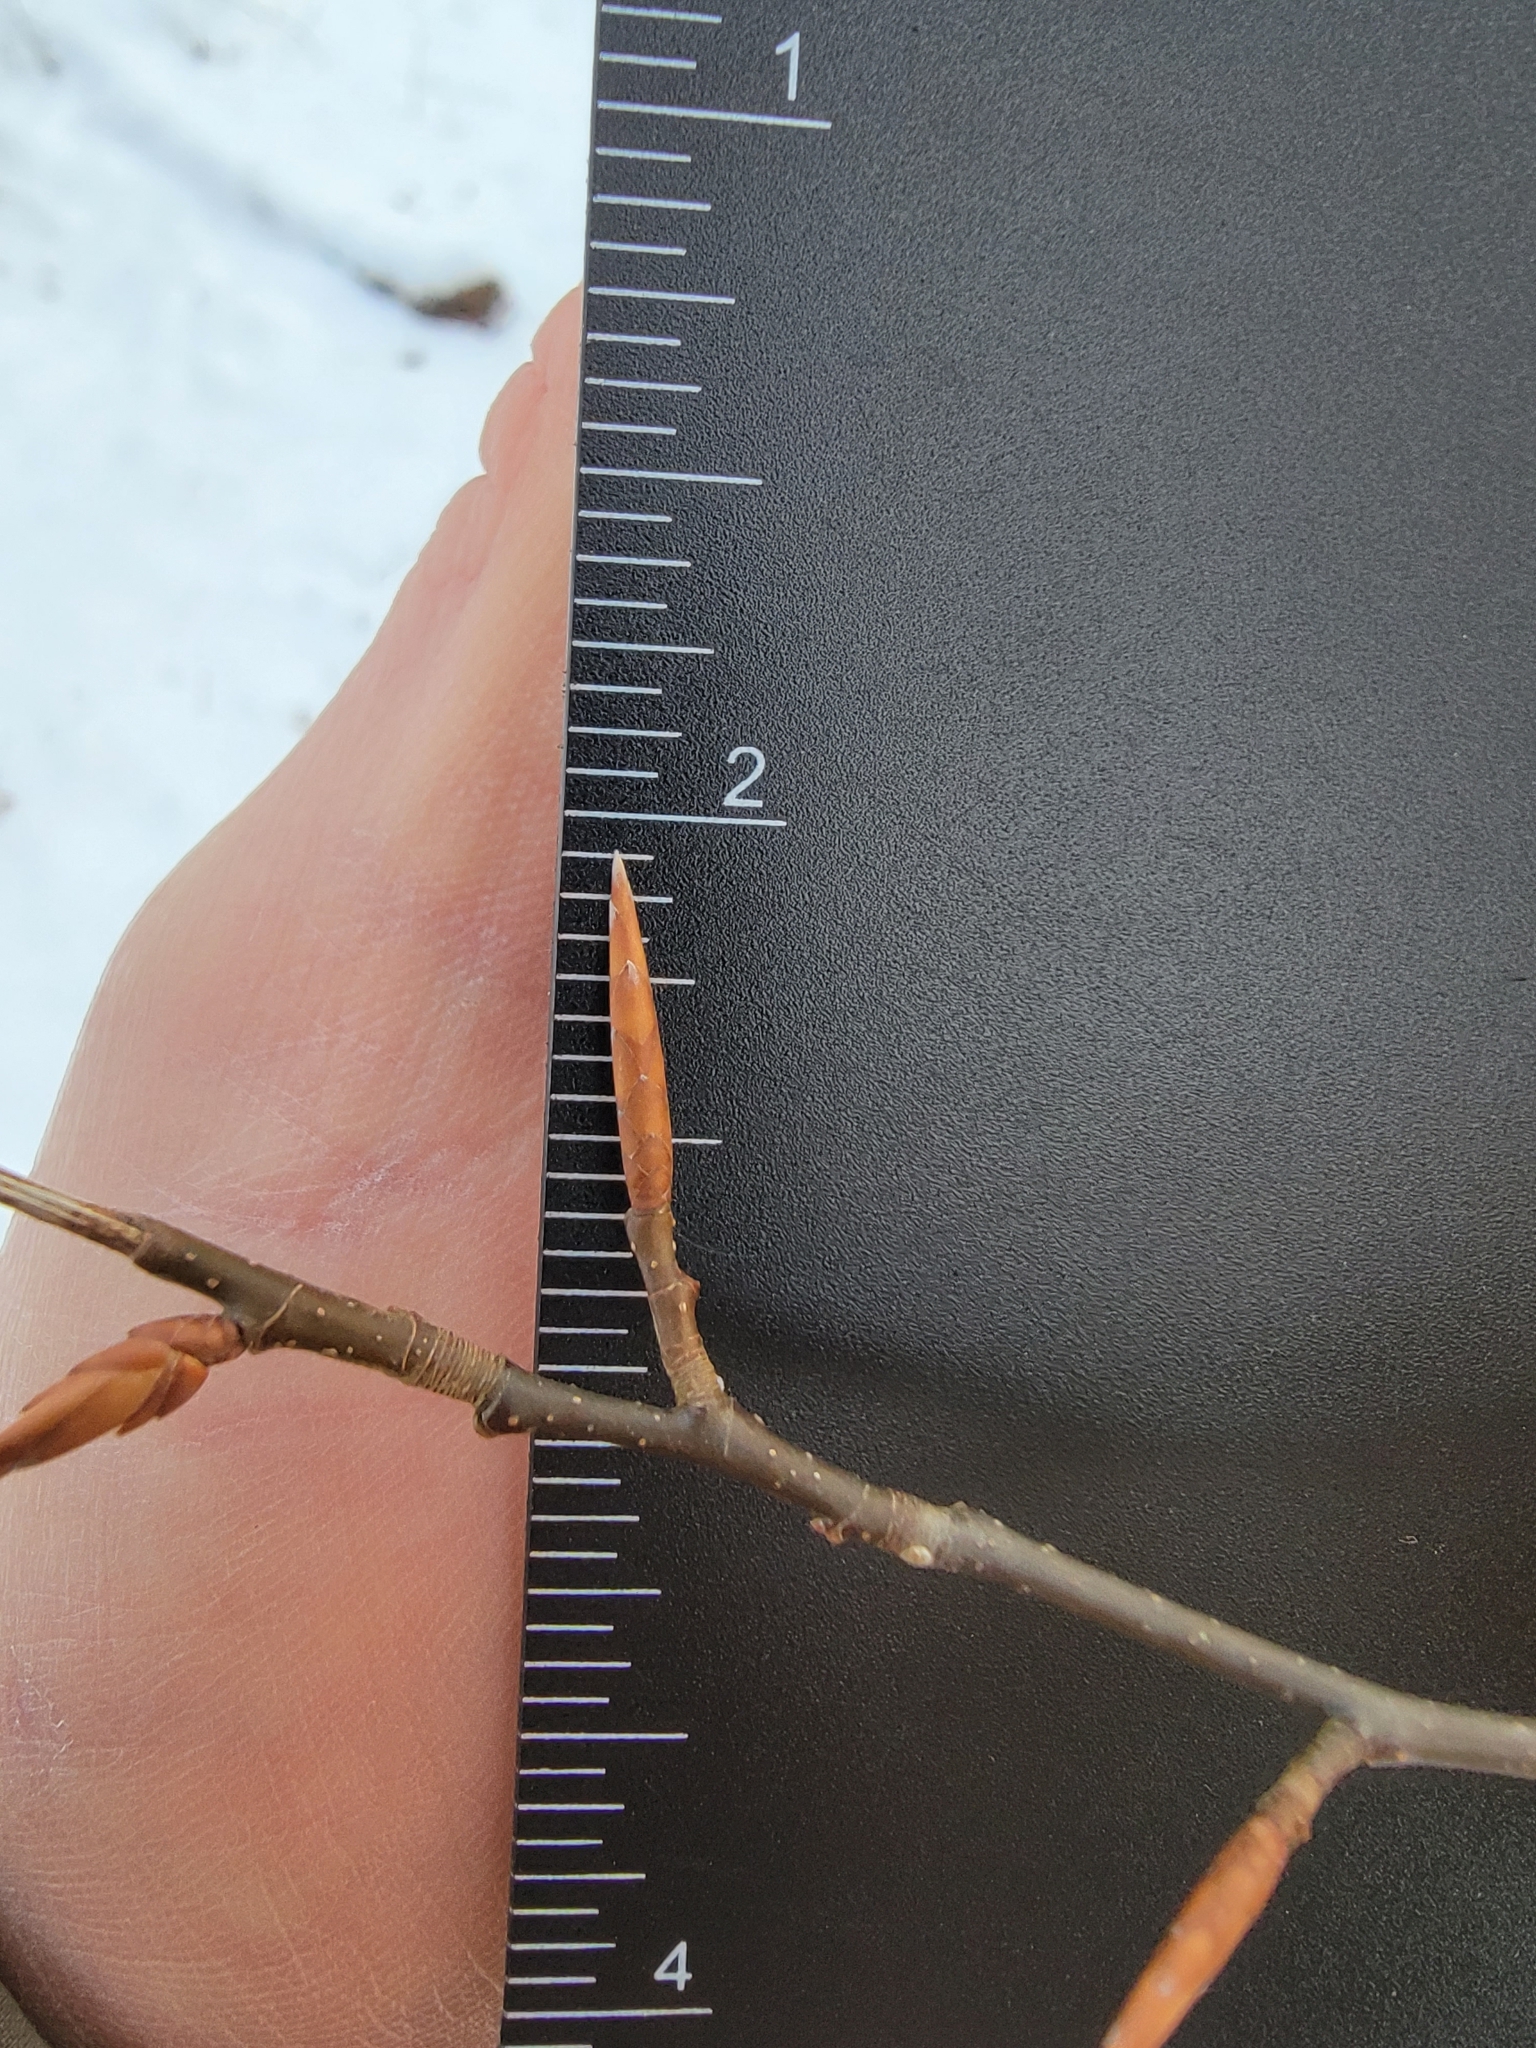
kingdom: Plantae
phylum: Tracheophyta
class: Magnoliopsida
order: Fagales
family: Fagaceae
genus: Fagus
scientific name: Fagus grandifolia
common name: American beech
